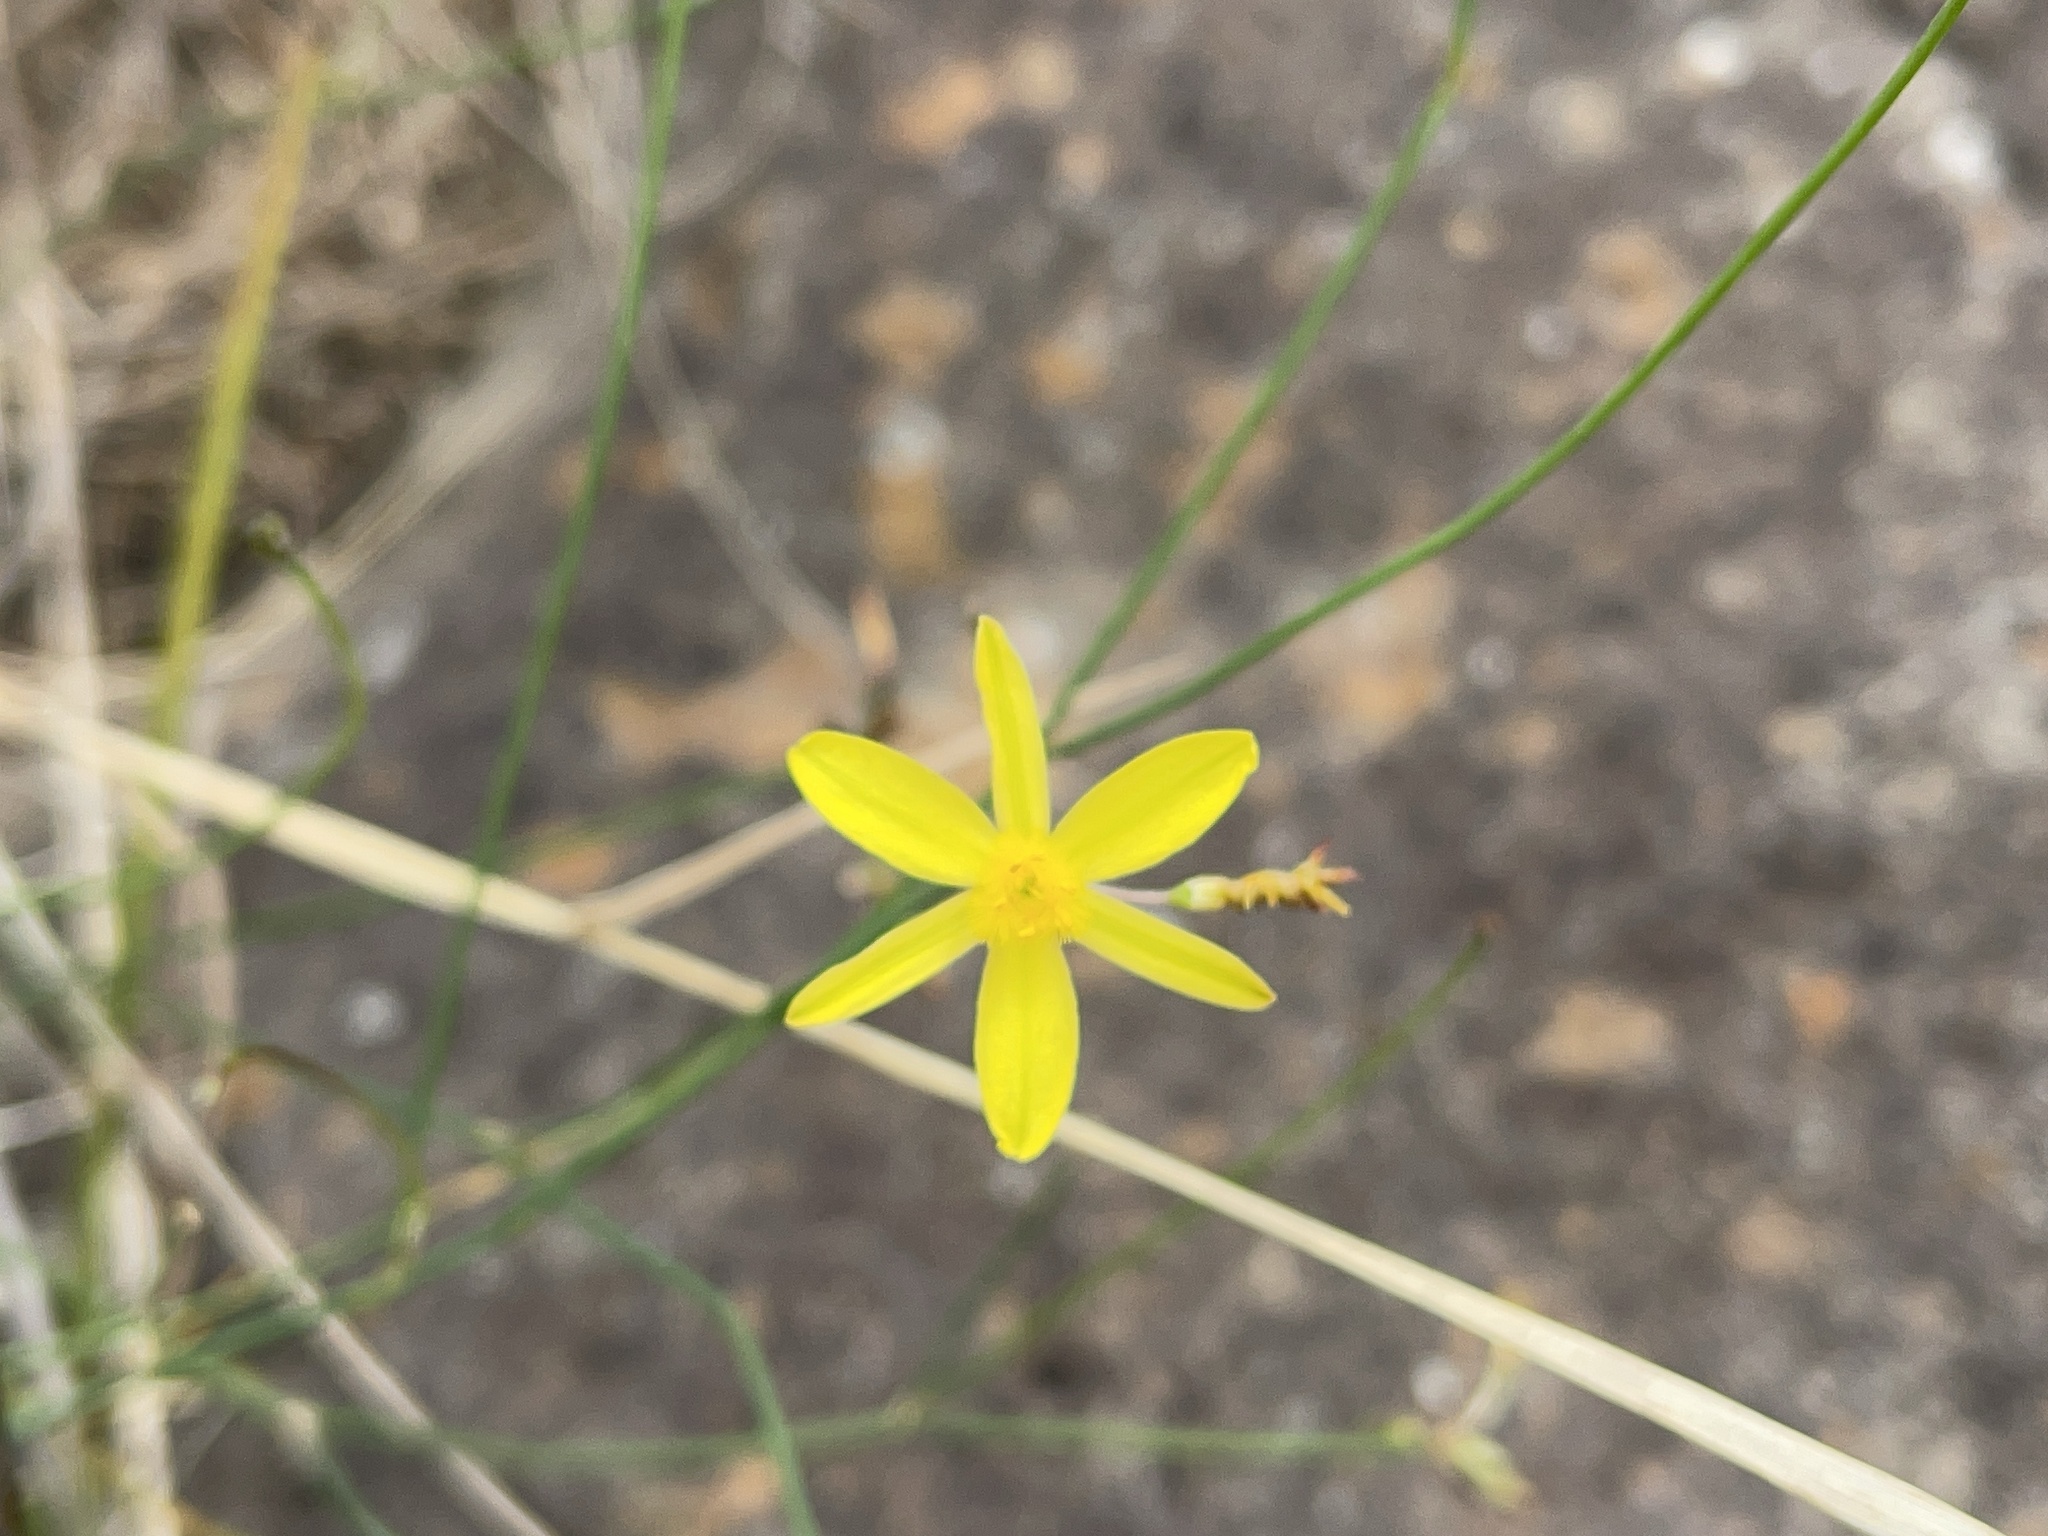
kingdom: Plantae
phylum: Tracheophyta
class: Liliopsida
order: Asparagales
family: Asphodelaceae
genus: Tricoryne
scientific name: Tricoryne elatior
